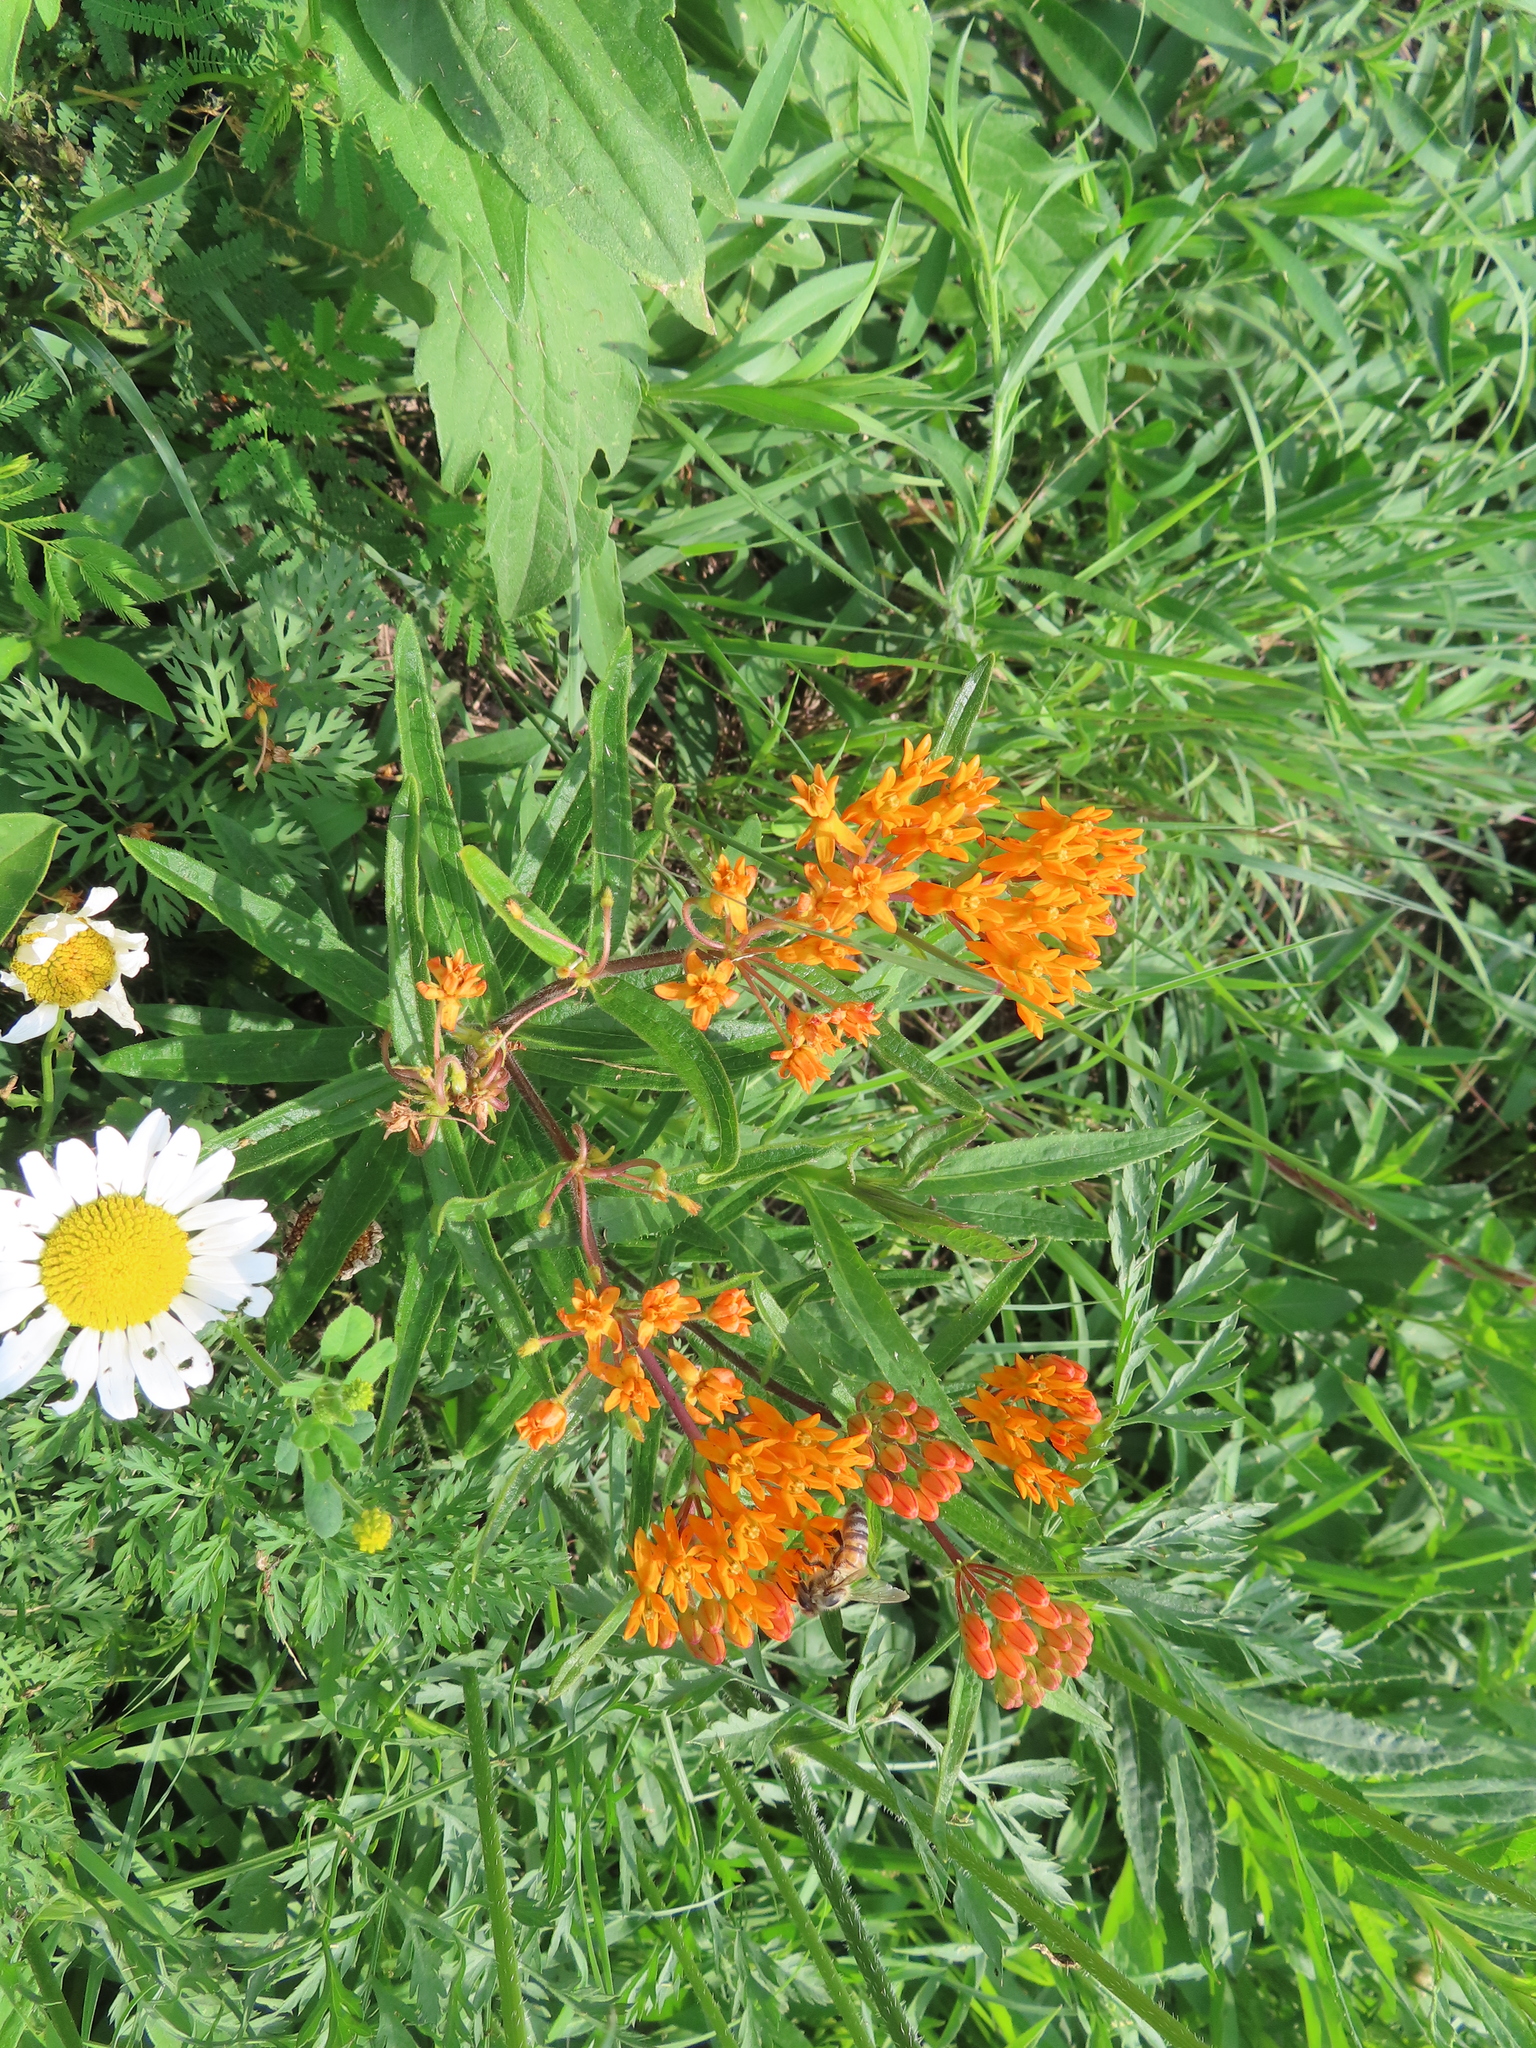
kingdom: Plantae
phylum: Tracheophyta
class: Magnoliopsida
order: Gentianales
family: Apocynaceae
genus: Asclepias
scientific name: Asclepias tuberosa
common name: Butterfly milkweed
